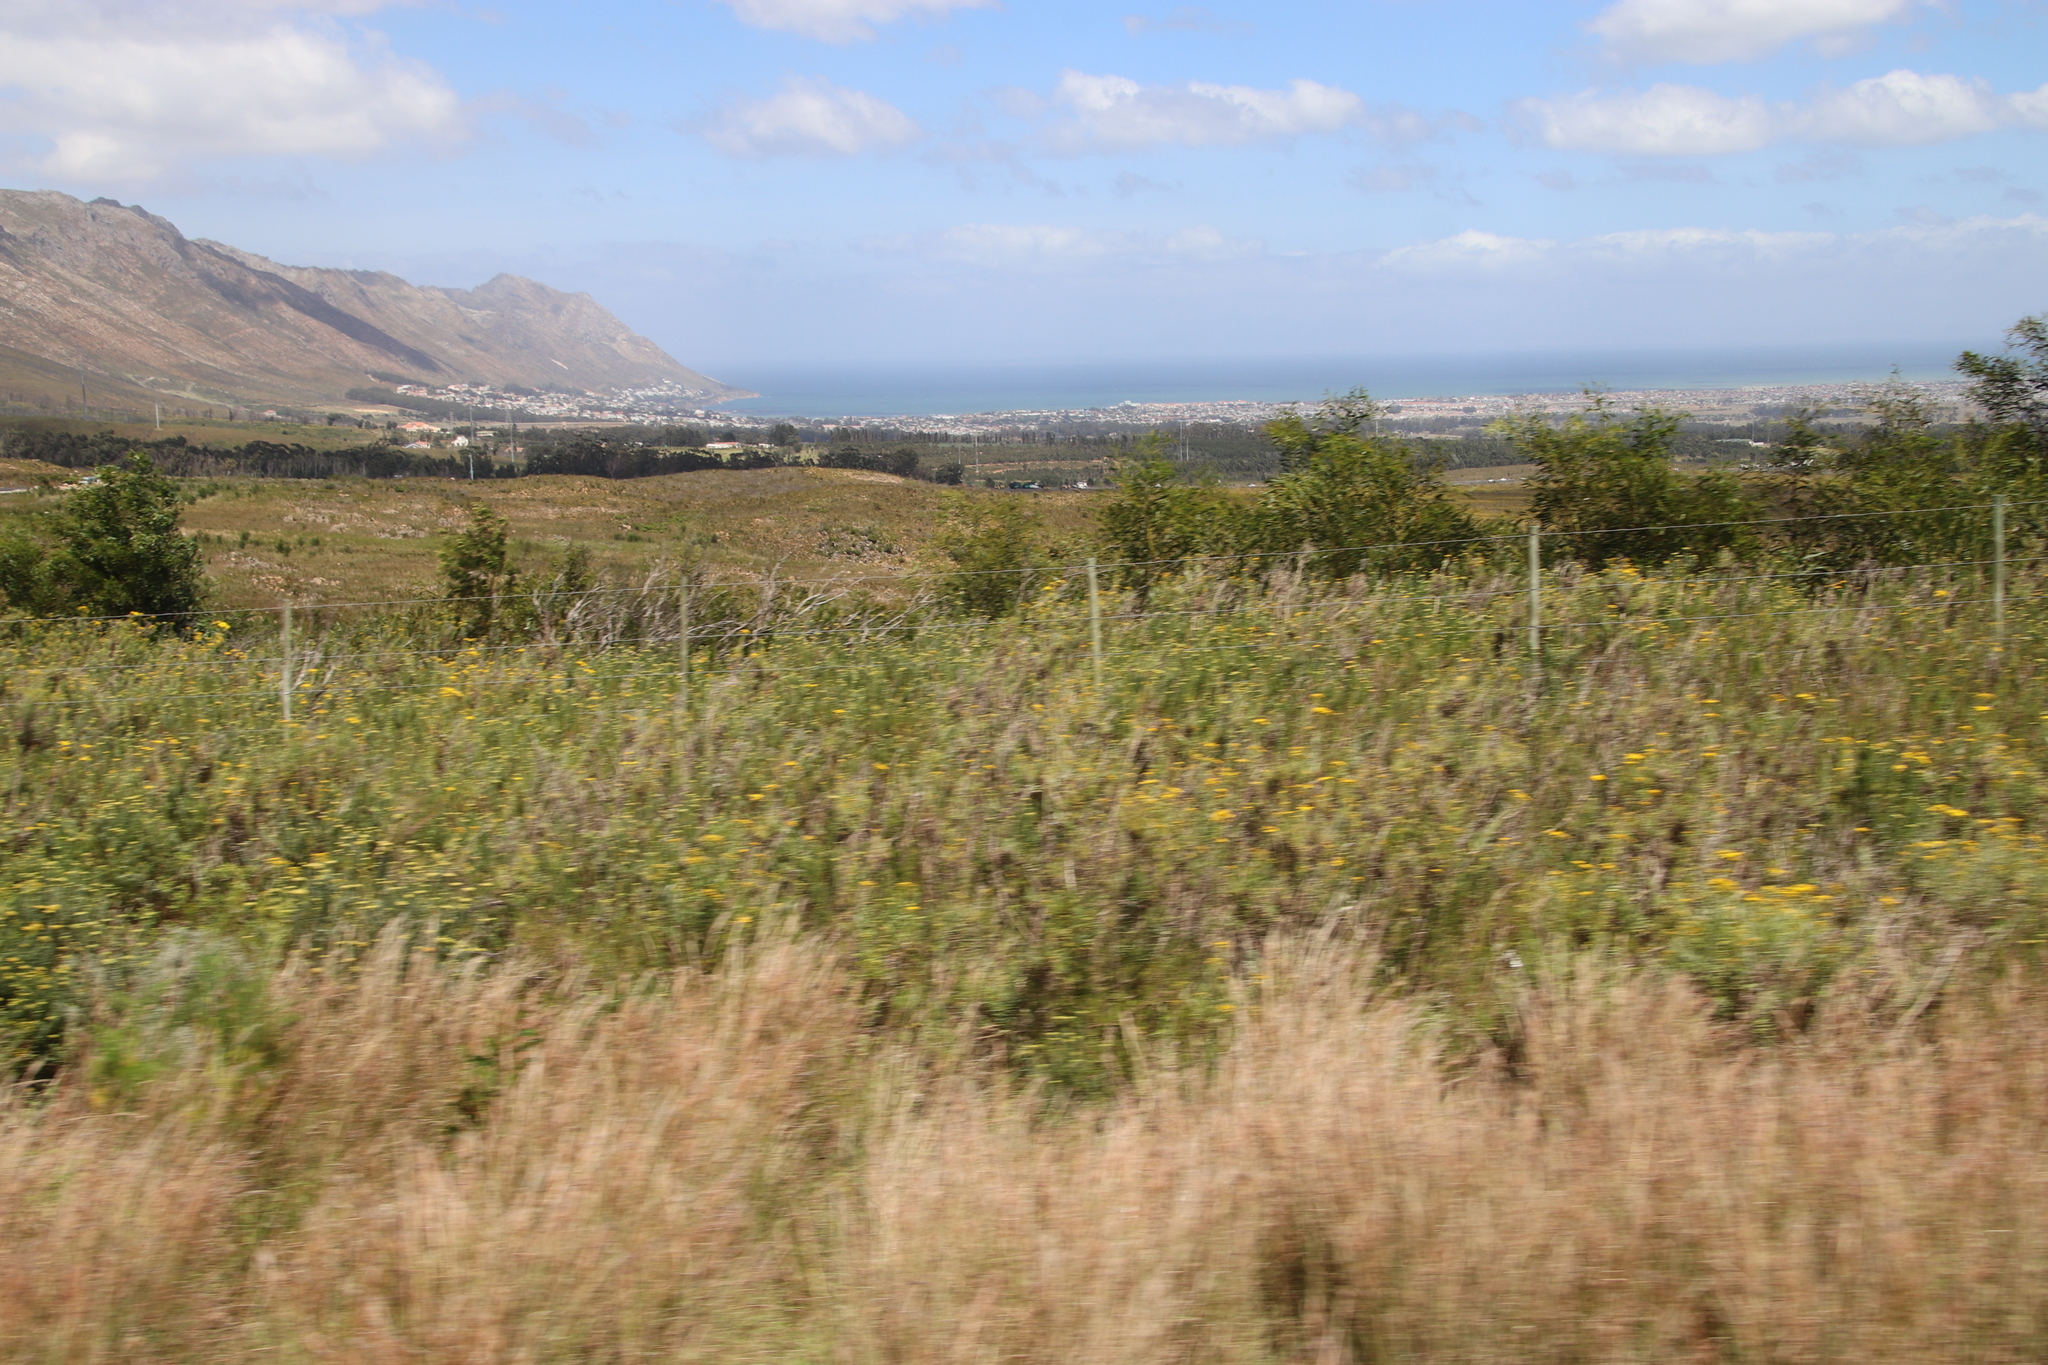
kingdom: Plantae
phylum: Tracheophyta
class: Magnoliopsida
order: Fabales
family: Fabaceae
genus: Acacia
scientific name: Acacia saligna
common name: Orange wattle
